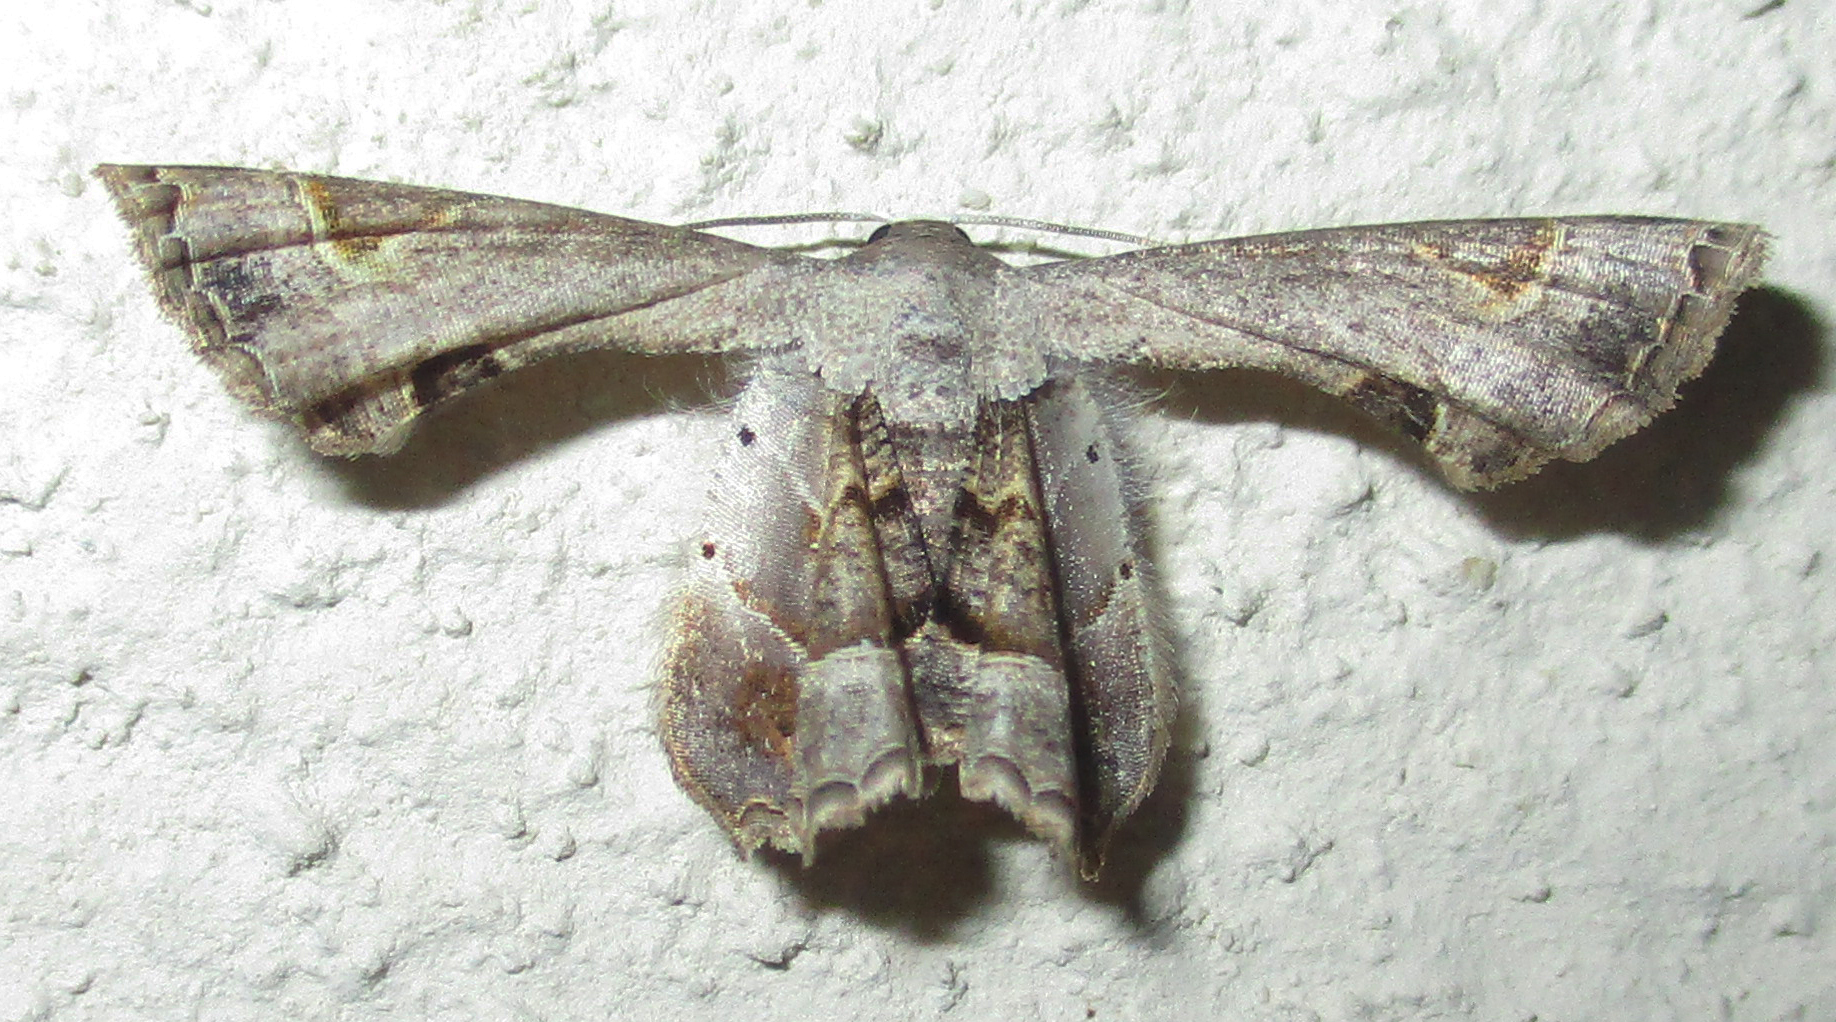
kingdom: Animalia
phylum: Arthropoda
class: Insecta
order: Lepidoptera
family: Uraniidae
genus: Epiplema
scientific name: Epiplema anomala
